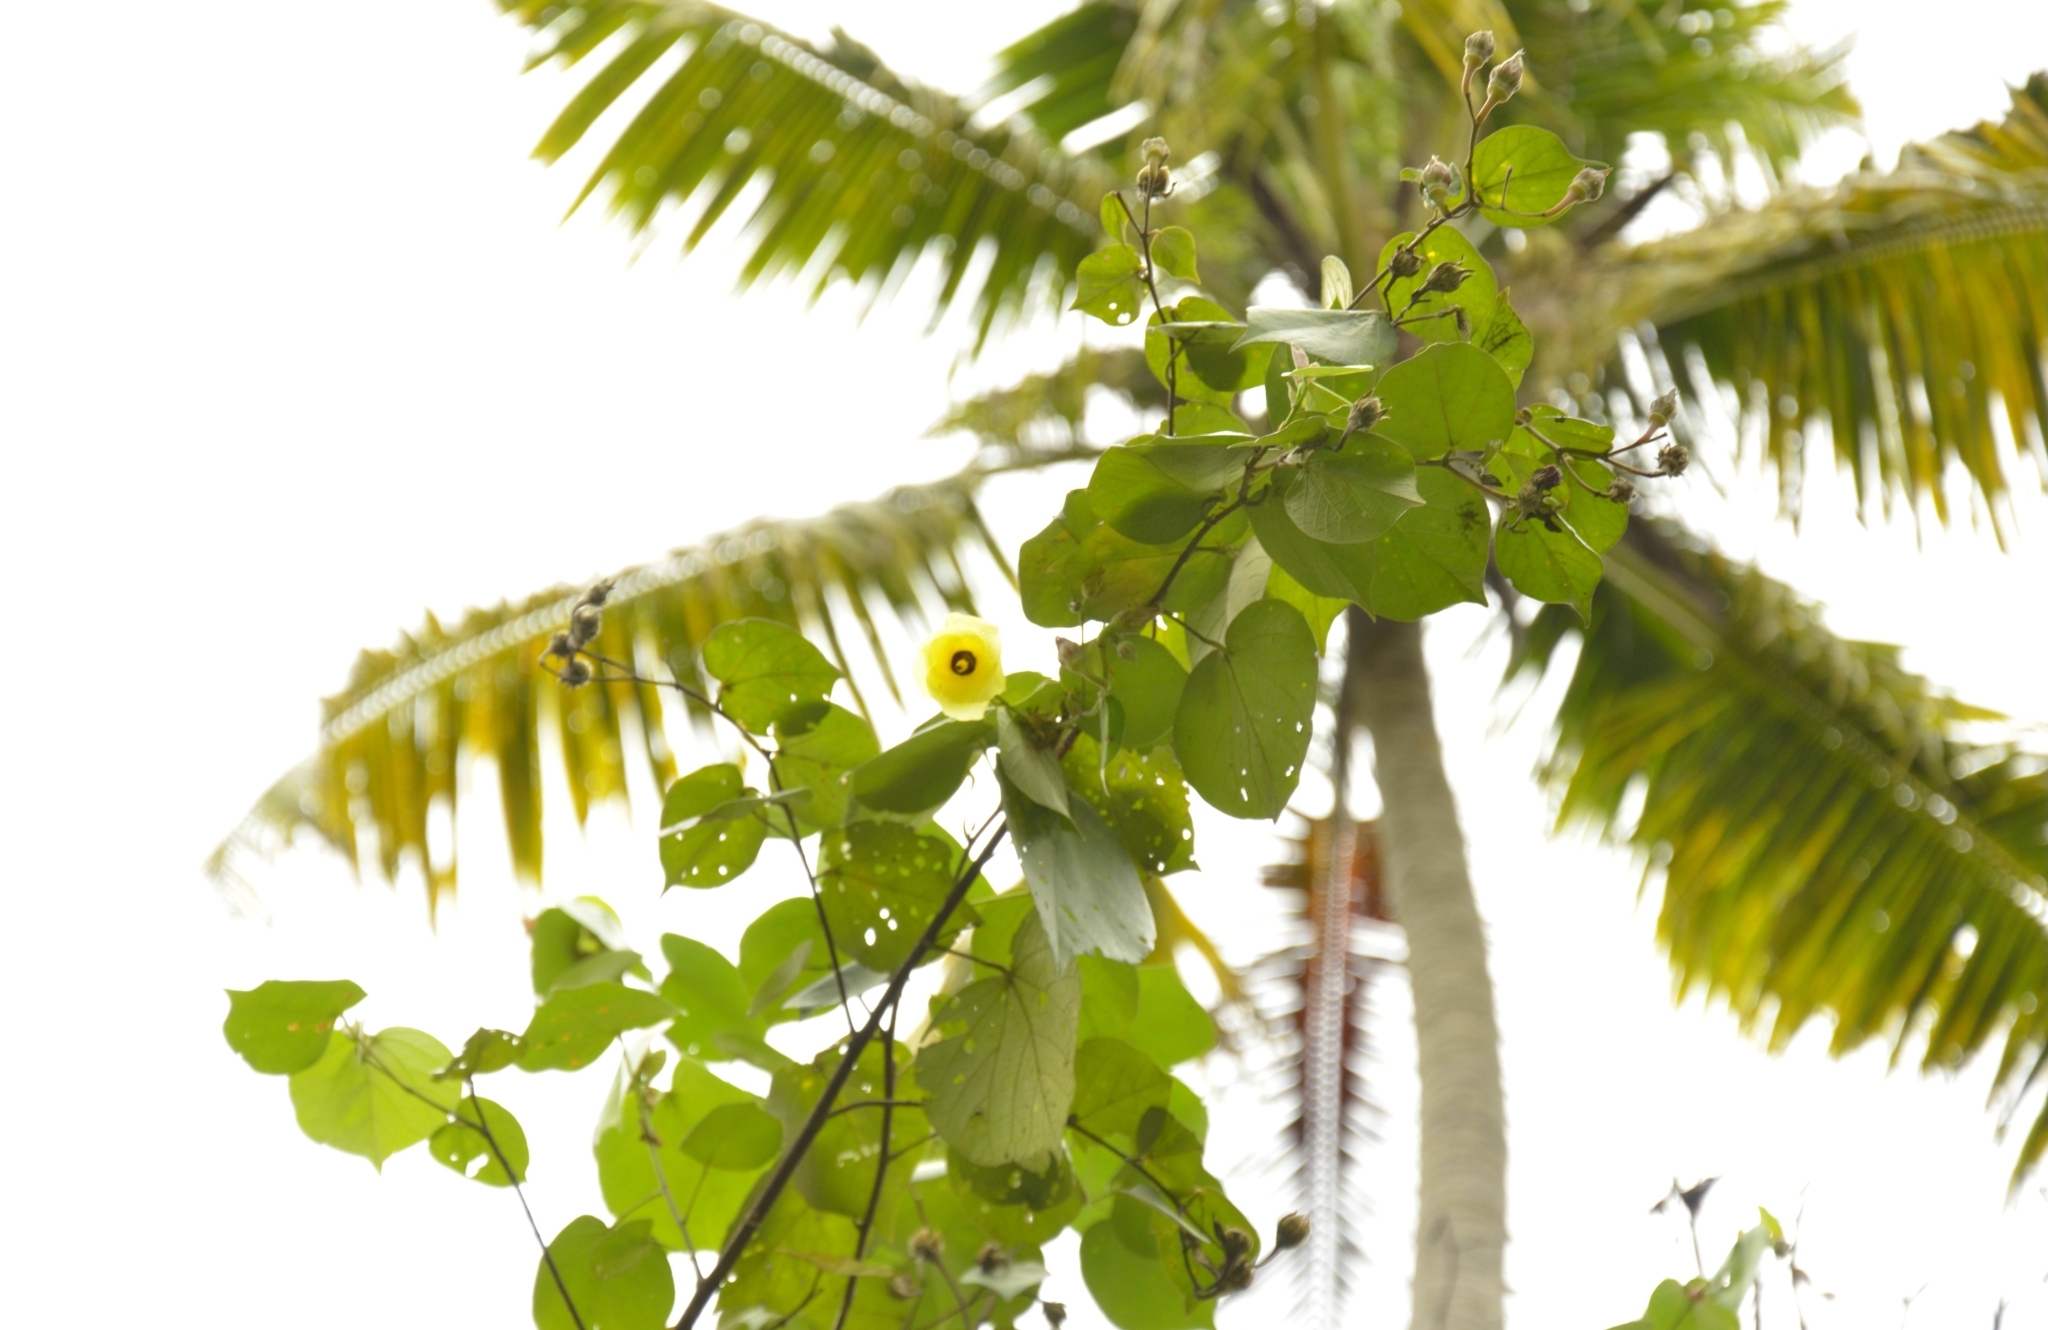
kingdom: Plantae
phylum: Tracheophyta
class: Magnoliopsida
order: Malvales
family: Malvaceae
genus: Talipariti
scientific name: Talipariti tiliaceum
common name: Sea hibiscus
